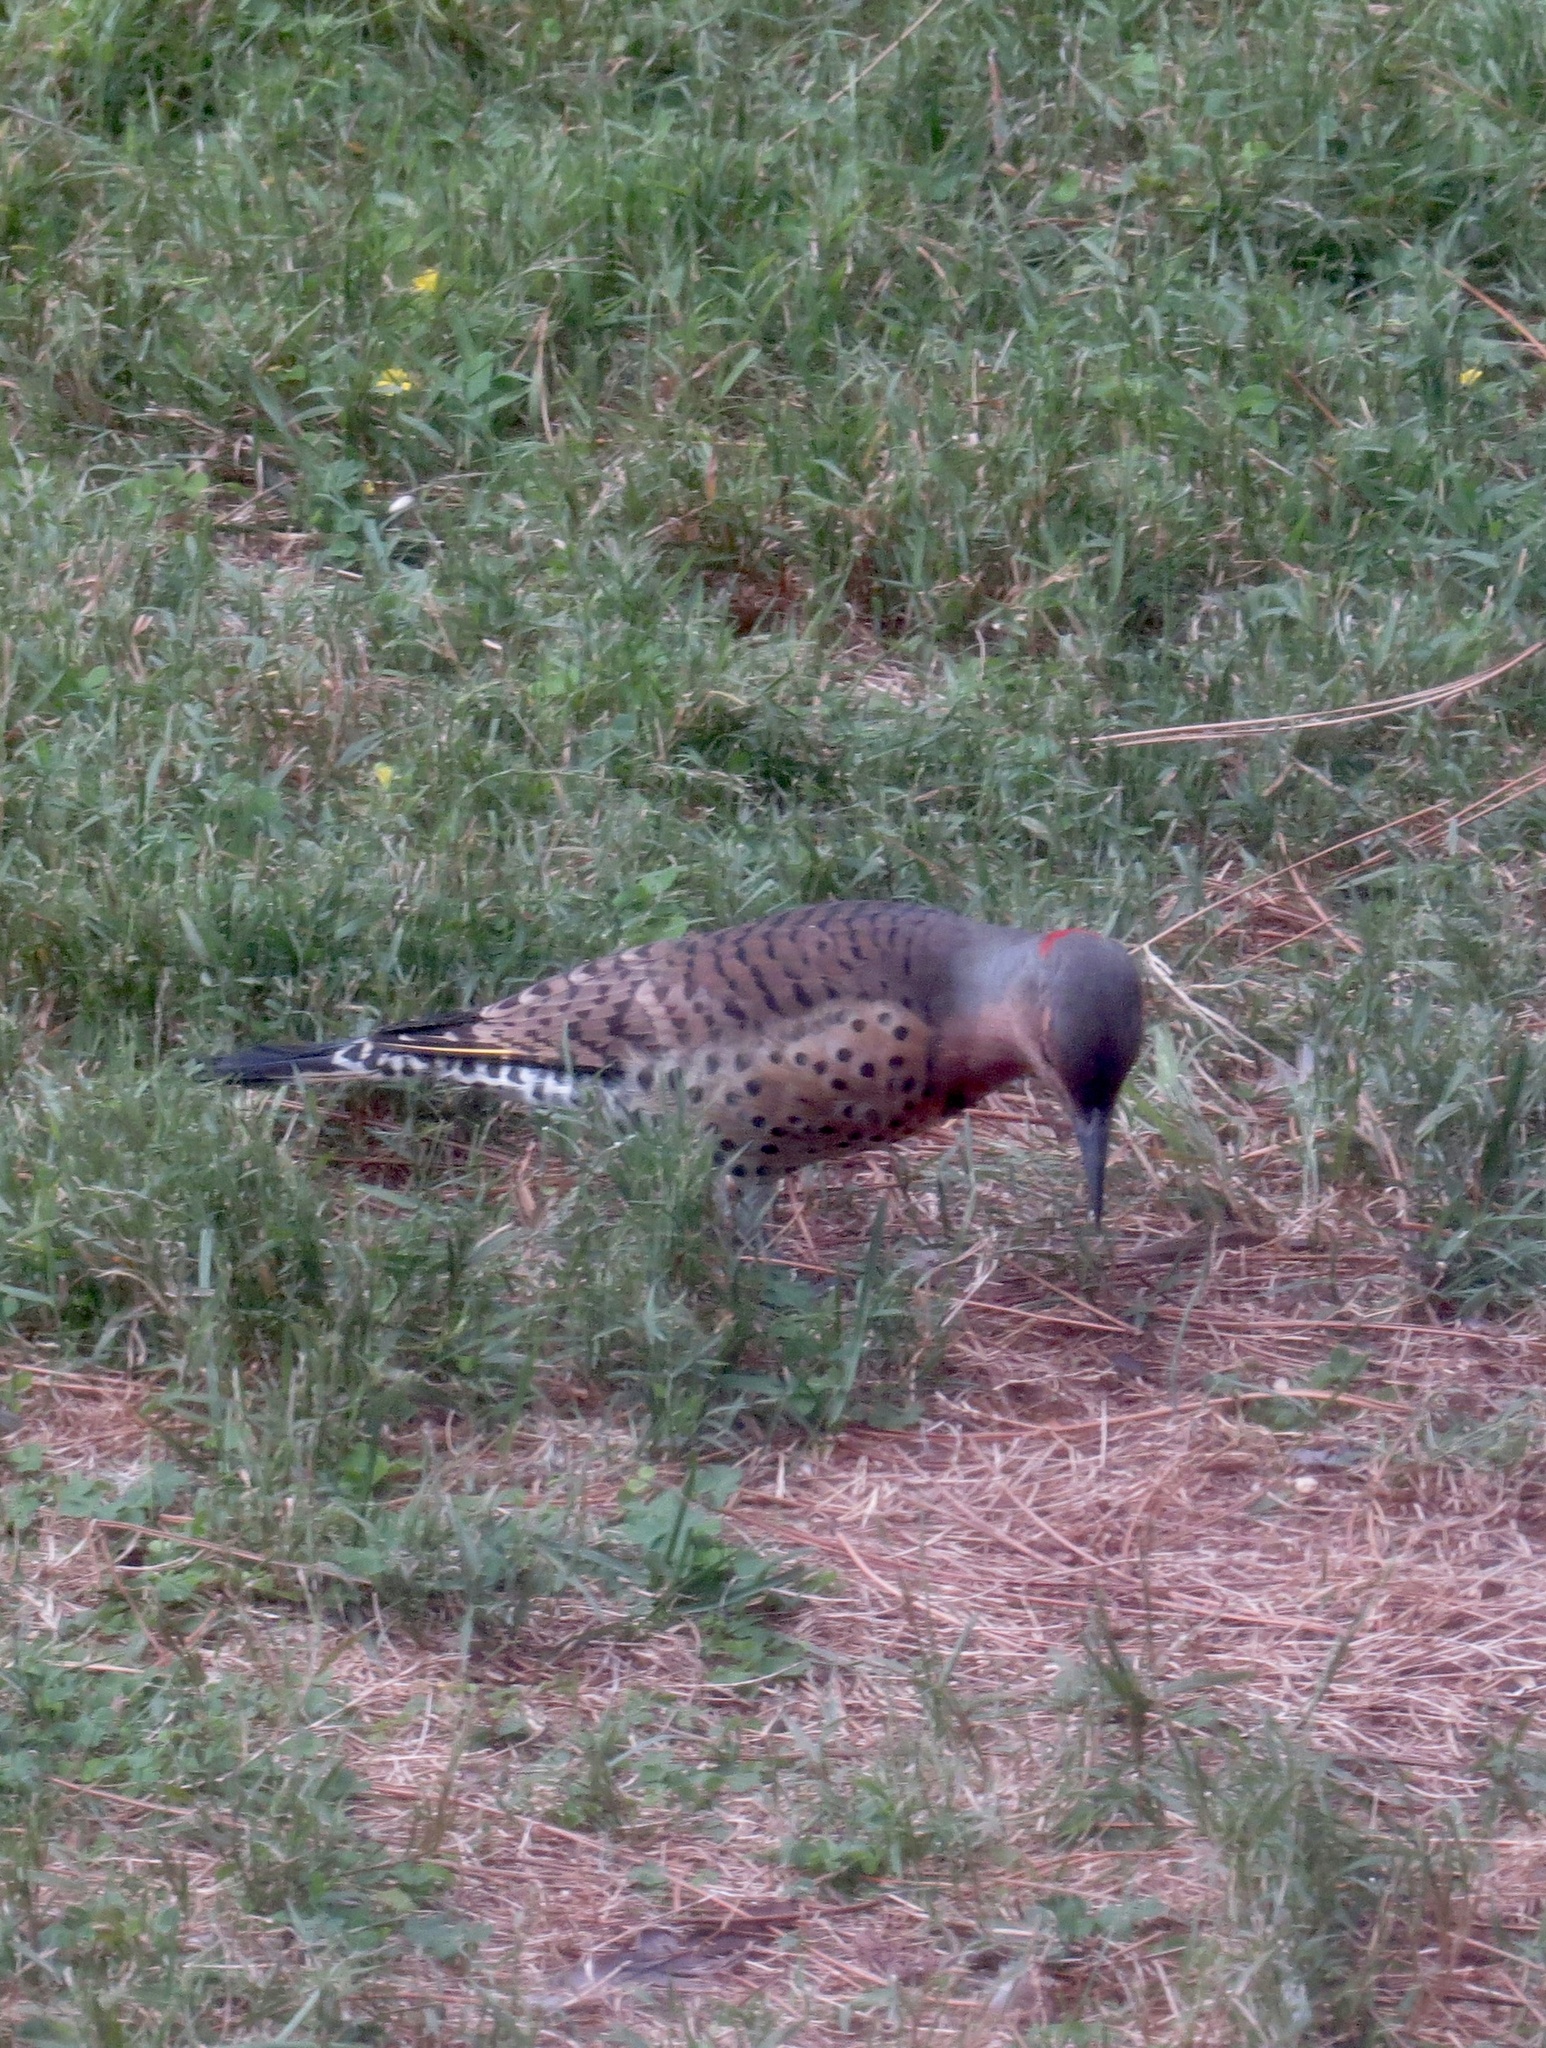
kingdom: Animalia
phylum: Chordata
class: Aves
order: Piciformes
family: Picidae
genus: Colaptes
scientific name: Colaptes auratus
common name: Northern flicker
